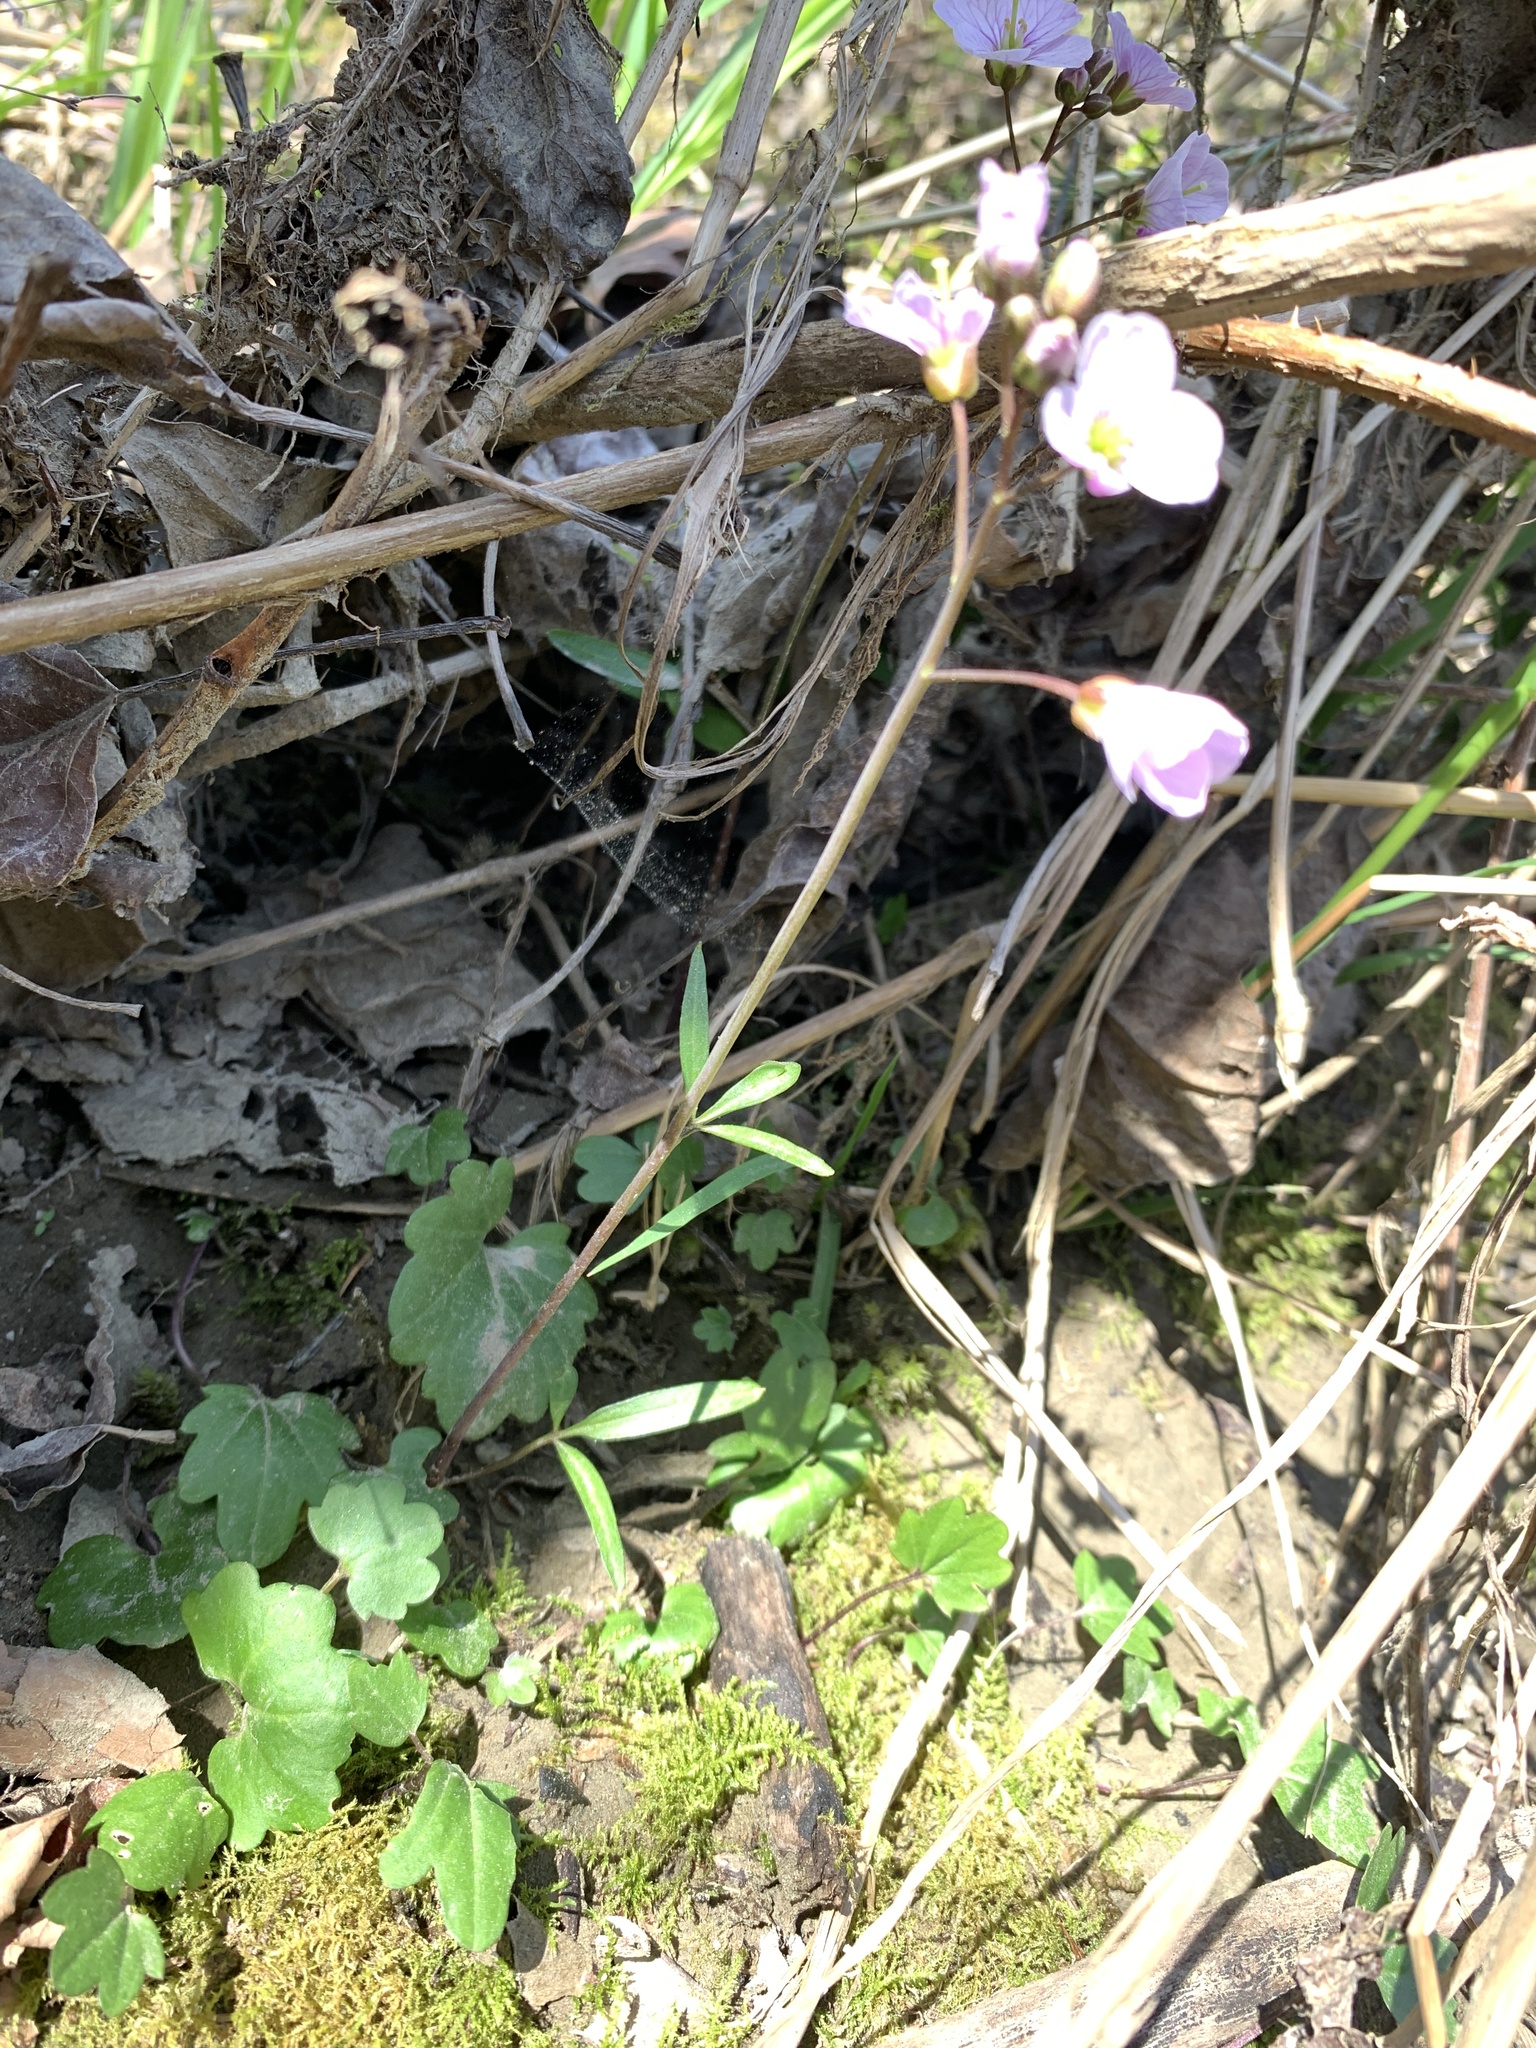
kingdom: Plantae
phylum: Tracheophyta
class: Magnoliopsida
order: Brassicales
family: Brassicaceae
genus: Cardamine
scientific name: Cardamine nuttallii
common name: Nuttall's toothwort
